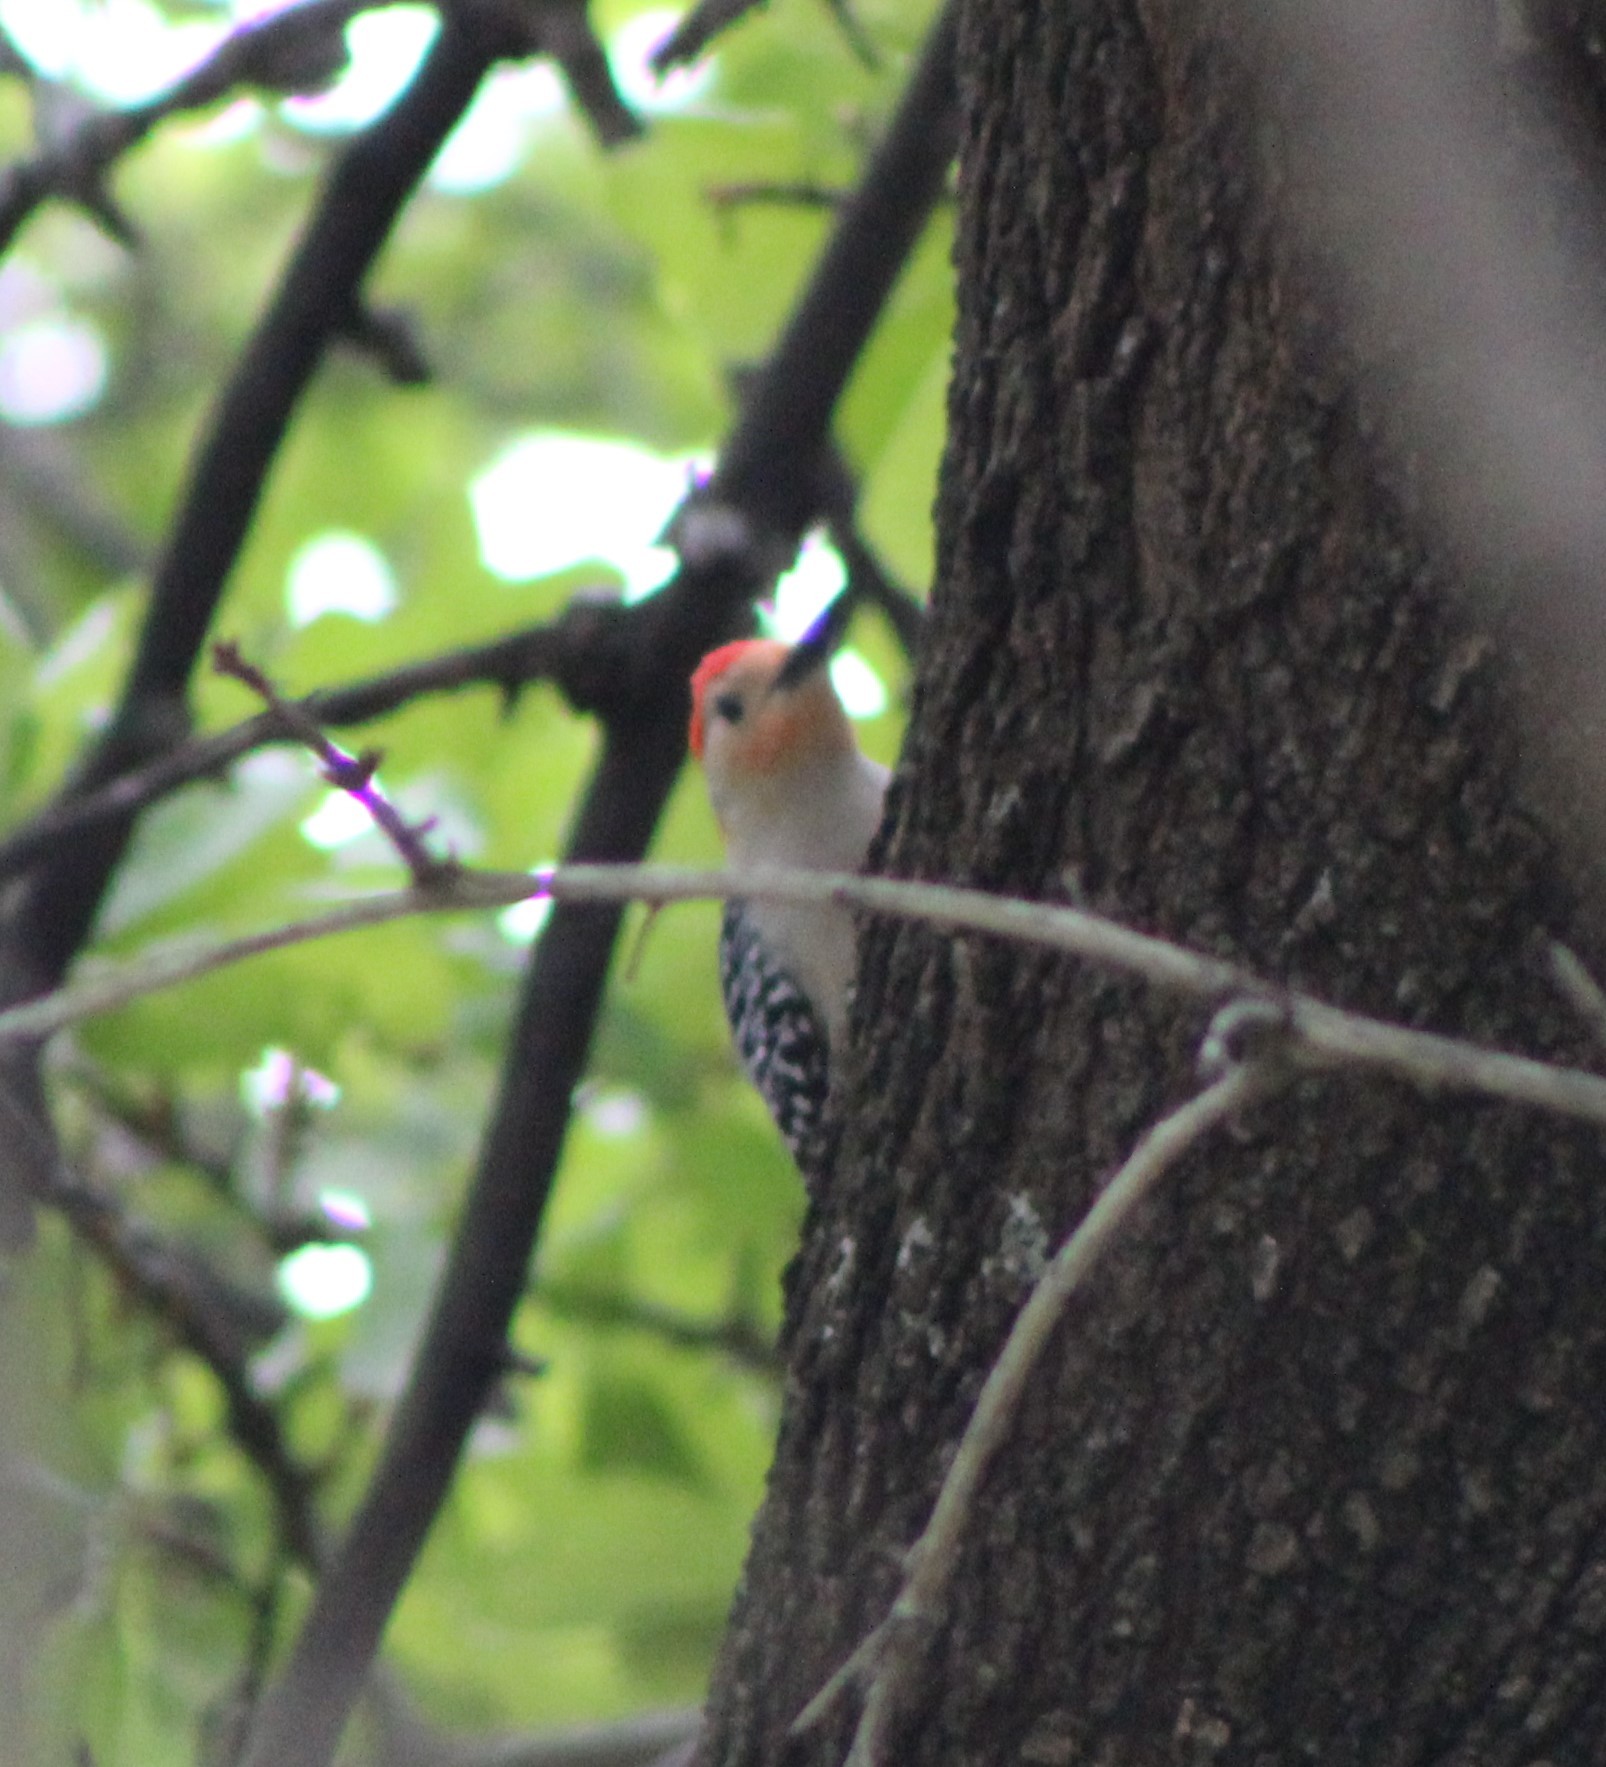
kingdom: Animalia
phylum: Chordata
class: Aves
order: Piciformes
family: Picidae
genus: Melanerpes
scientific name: Melanerpes carolinus
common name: Red-bellied woodpecker
